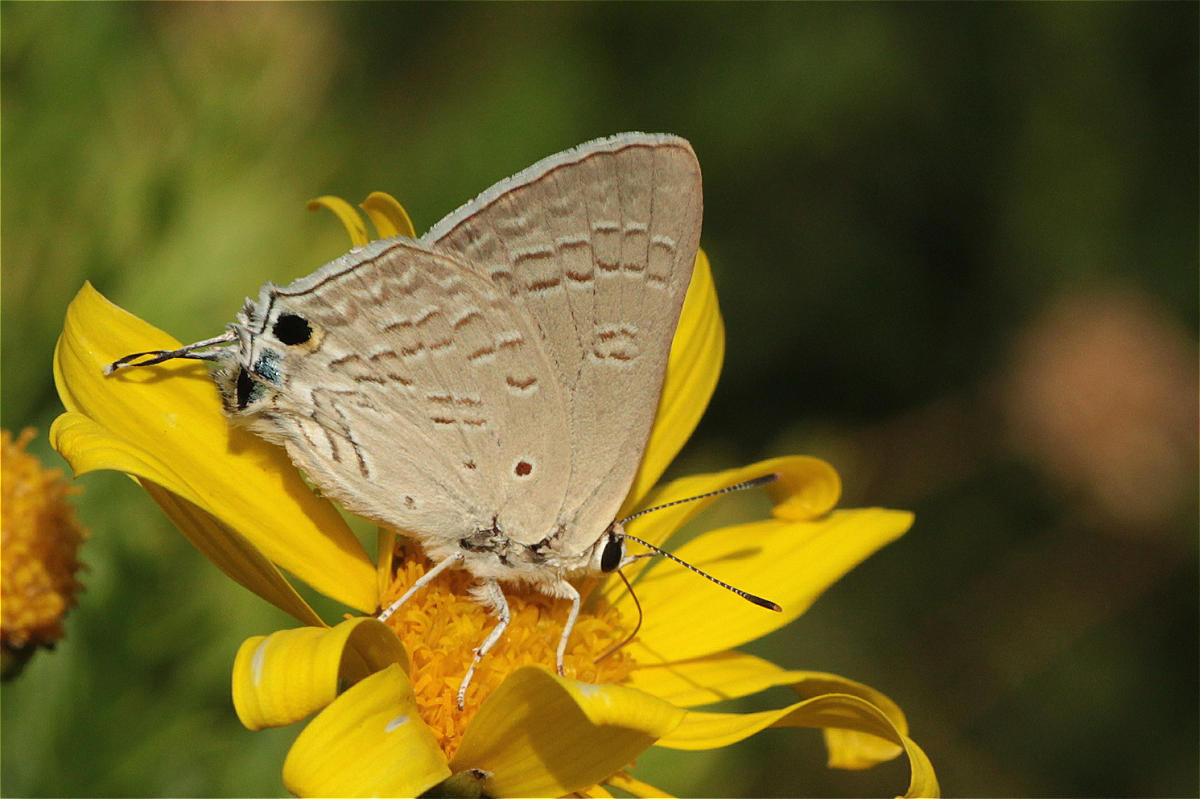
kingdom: Animalia
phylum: Arthropoda
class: Insecta
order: Lepidoptera
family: Lycaenidae
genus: Deudorix
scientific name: Deudorix livia
